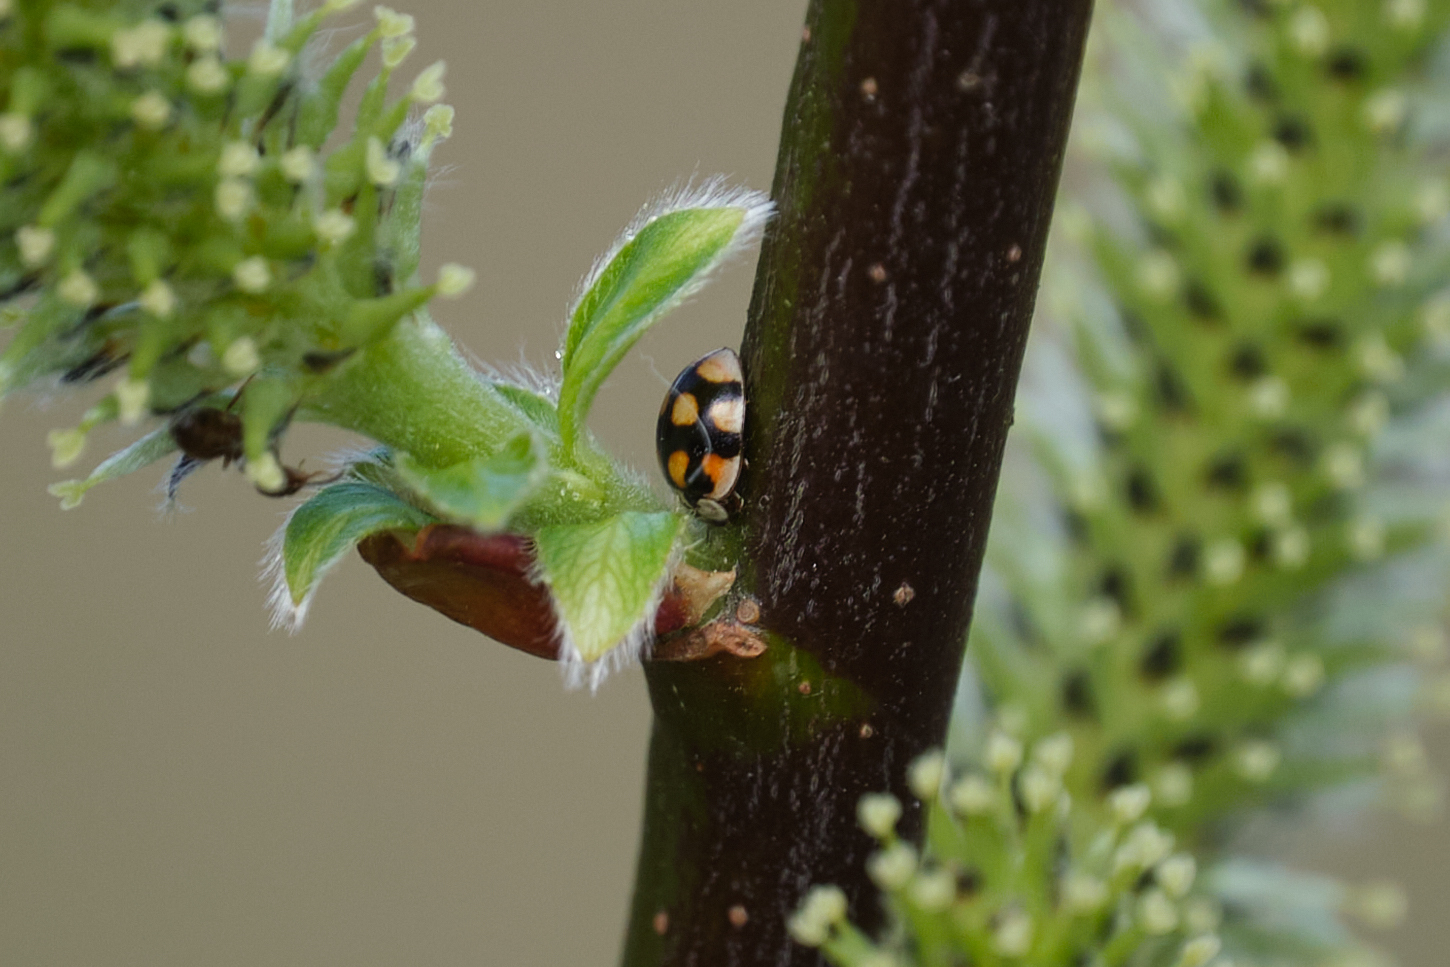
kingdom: Animalia
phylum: Arthropoda
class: Insecta
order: Coleoptera
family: Coccinellidae
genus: Adalia
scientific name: Adalia decempunctata
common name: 10-spot ladybird
